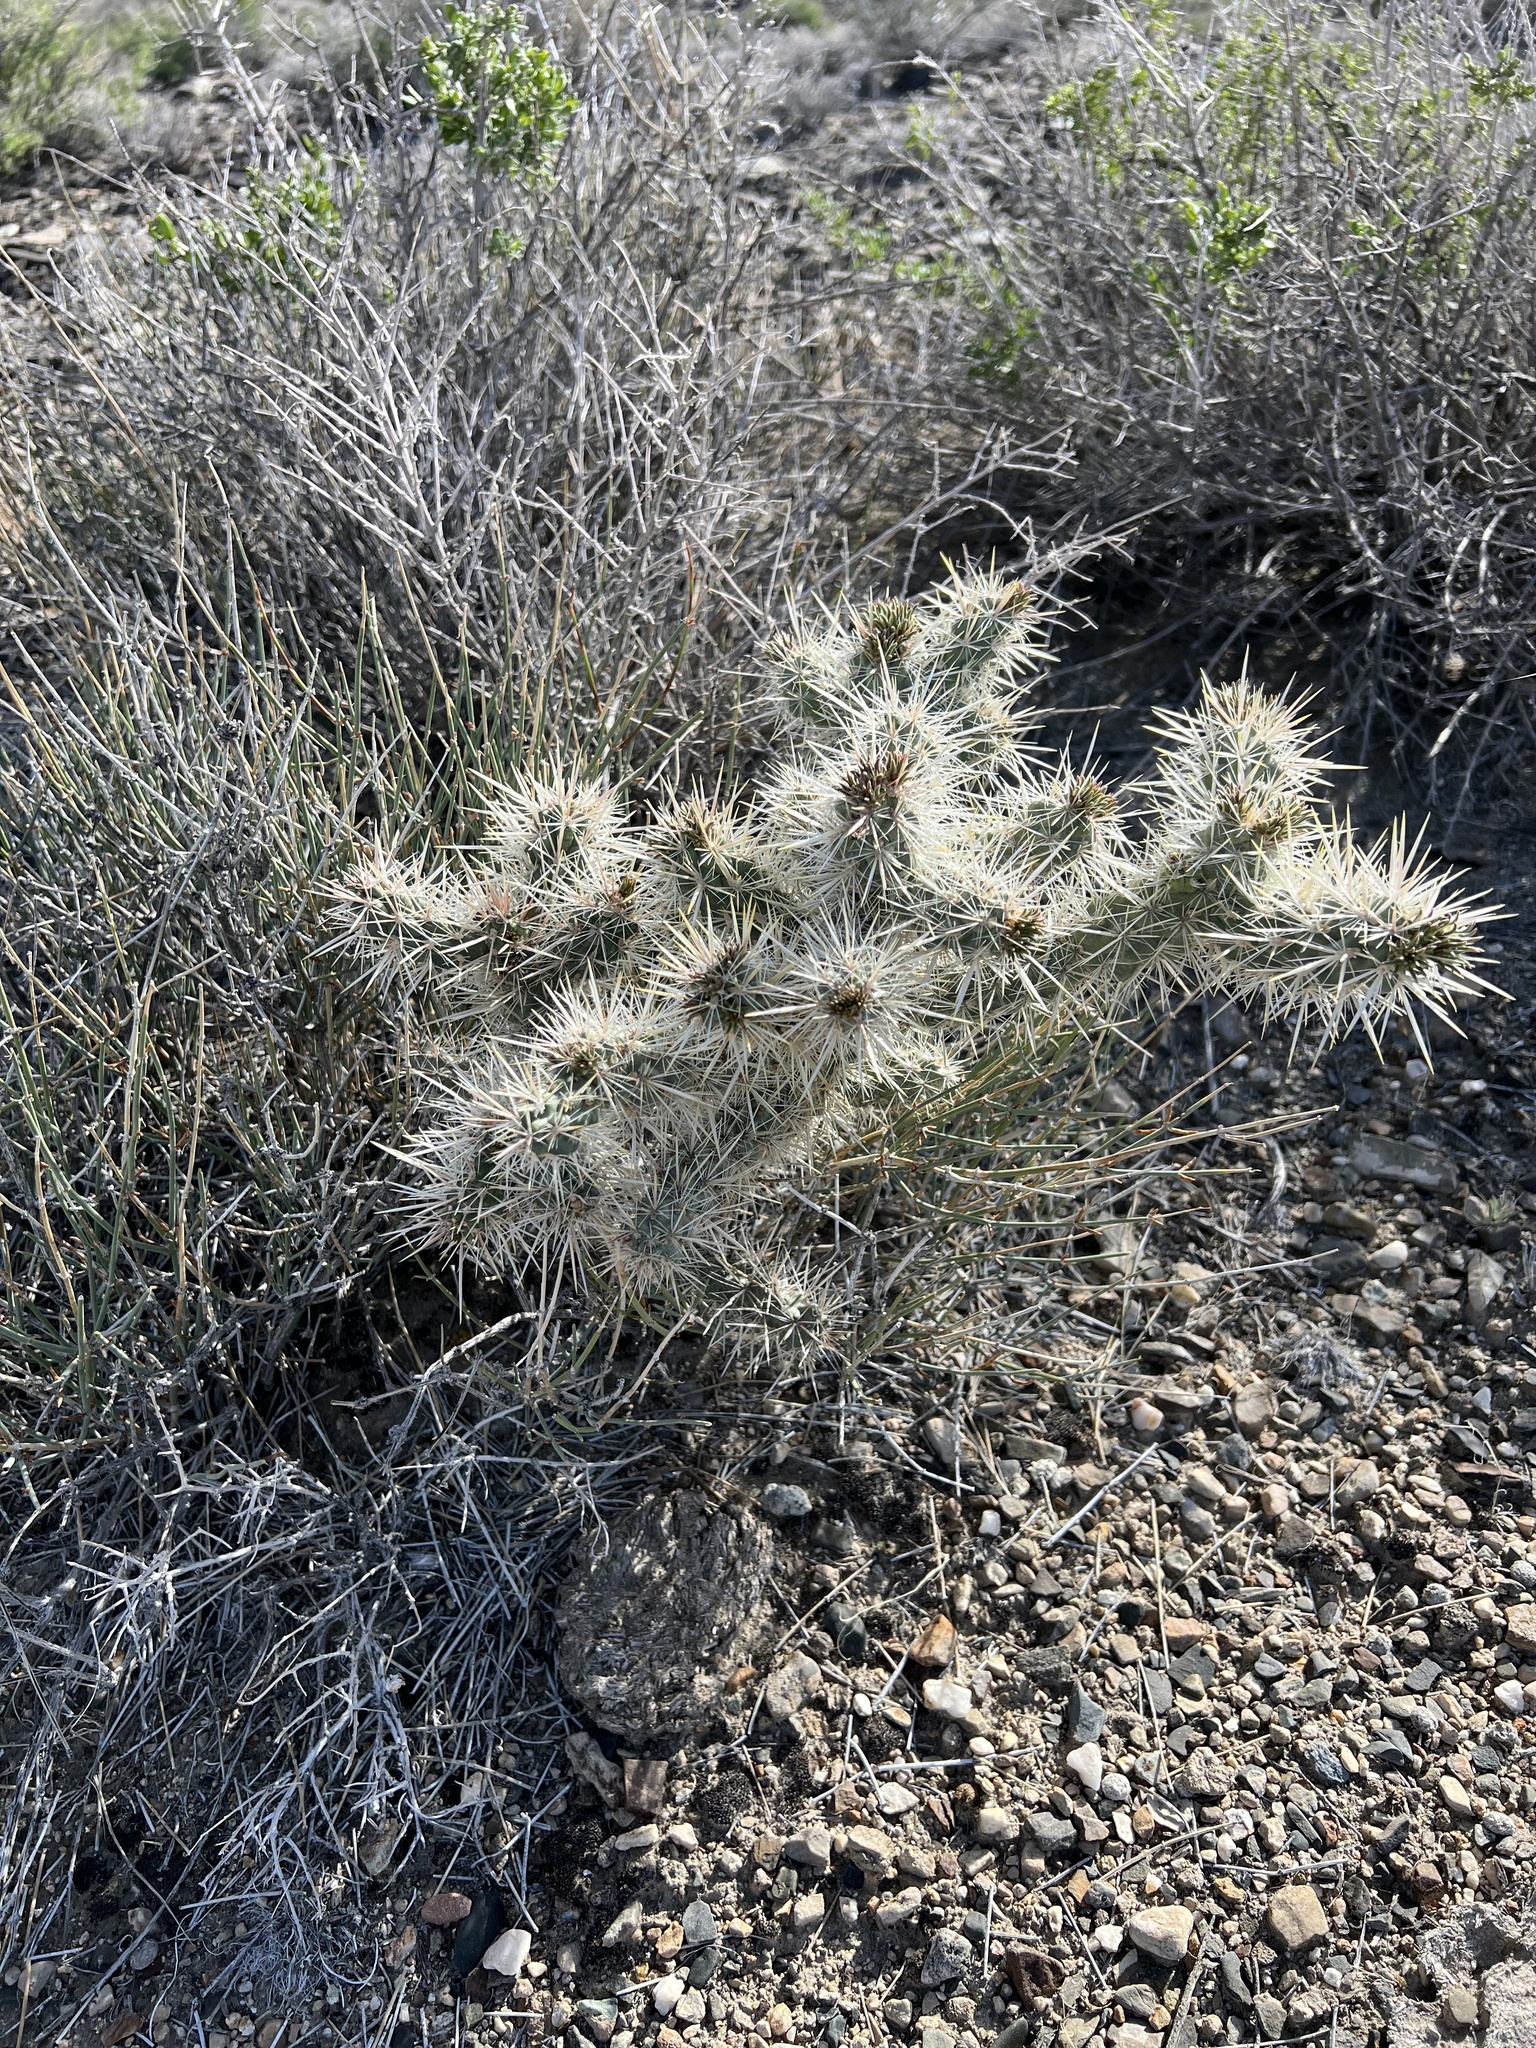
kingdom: Plantae
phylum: Tracheophyta
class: Magnoliopsida
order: Caryophyllales
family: Cactaceae
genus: Cylindropuntia
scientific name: Cylindropuntia echinocarpa
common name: Ground cholla
